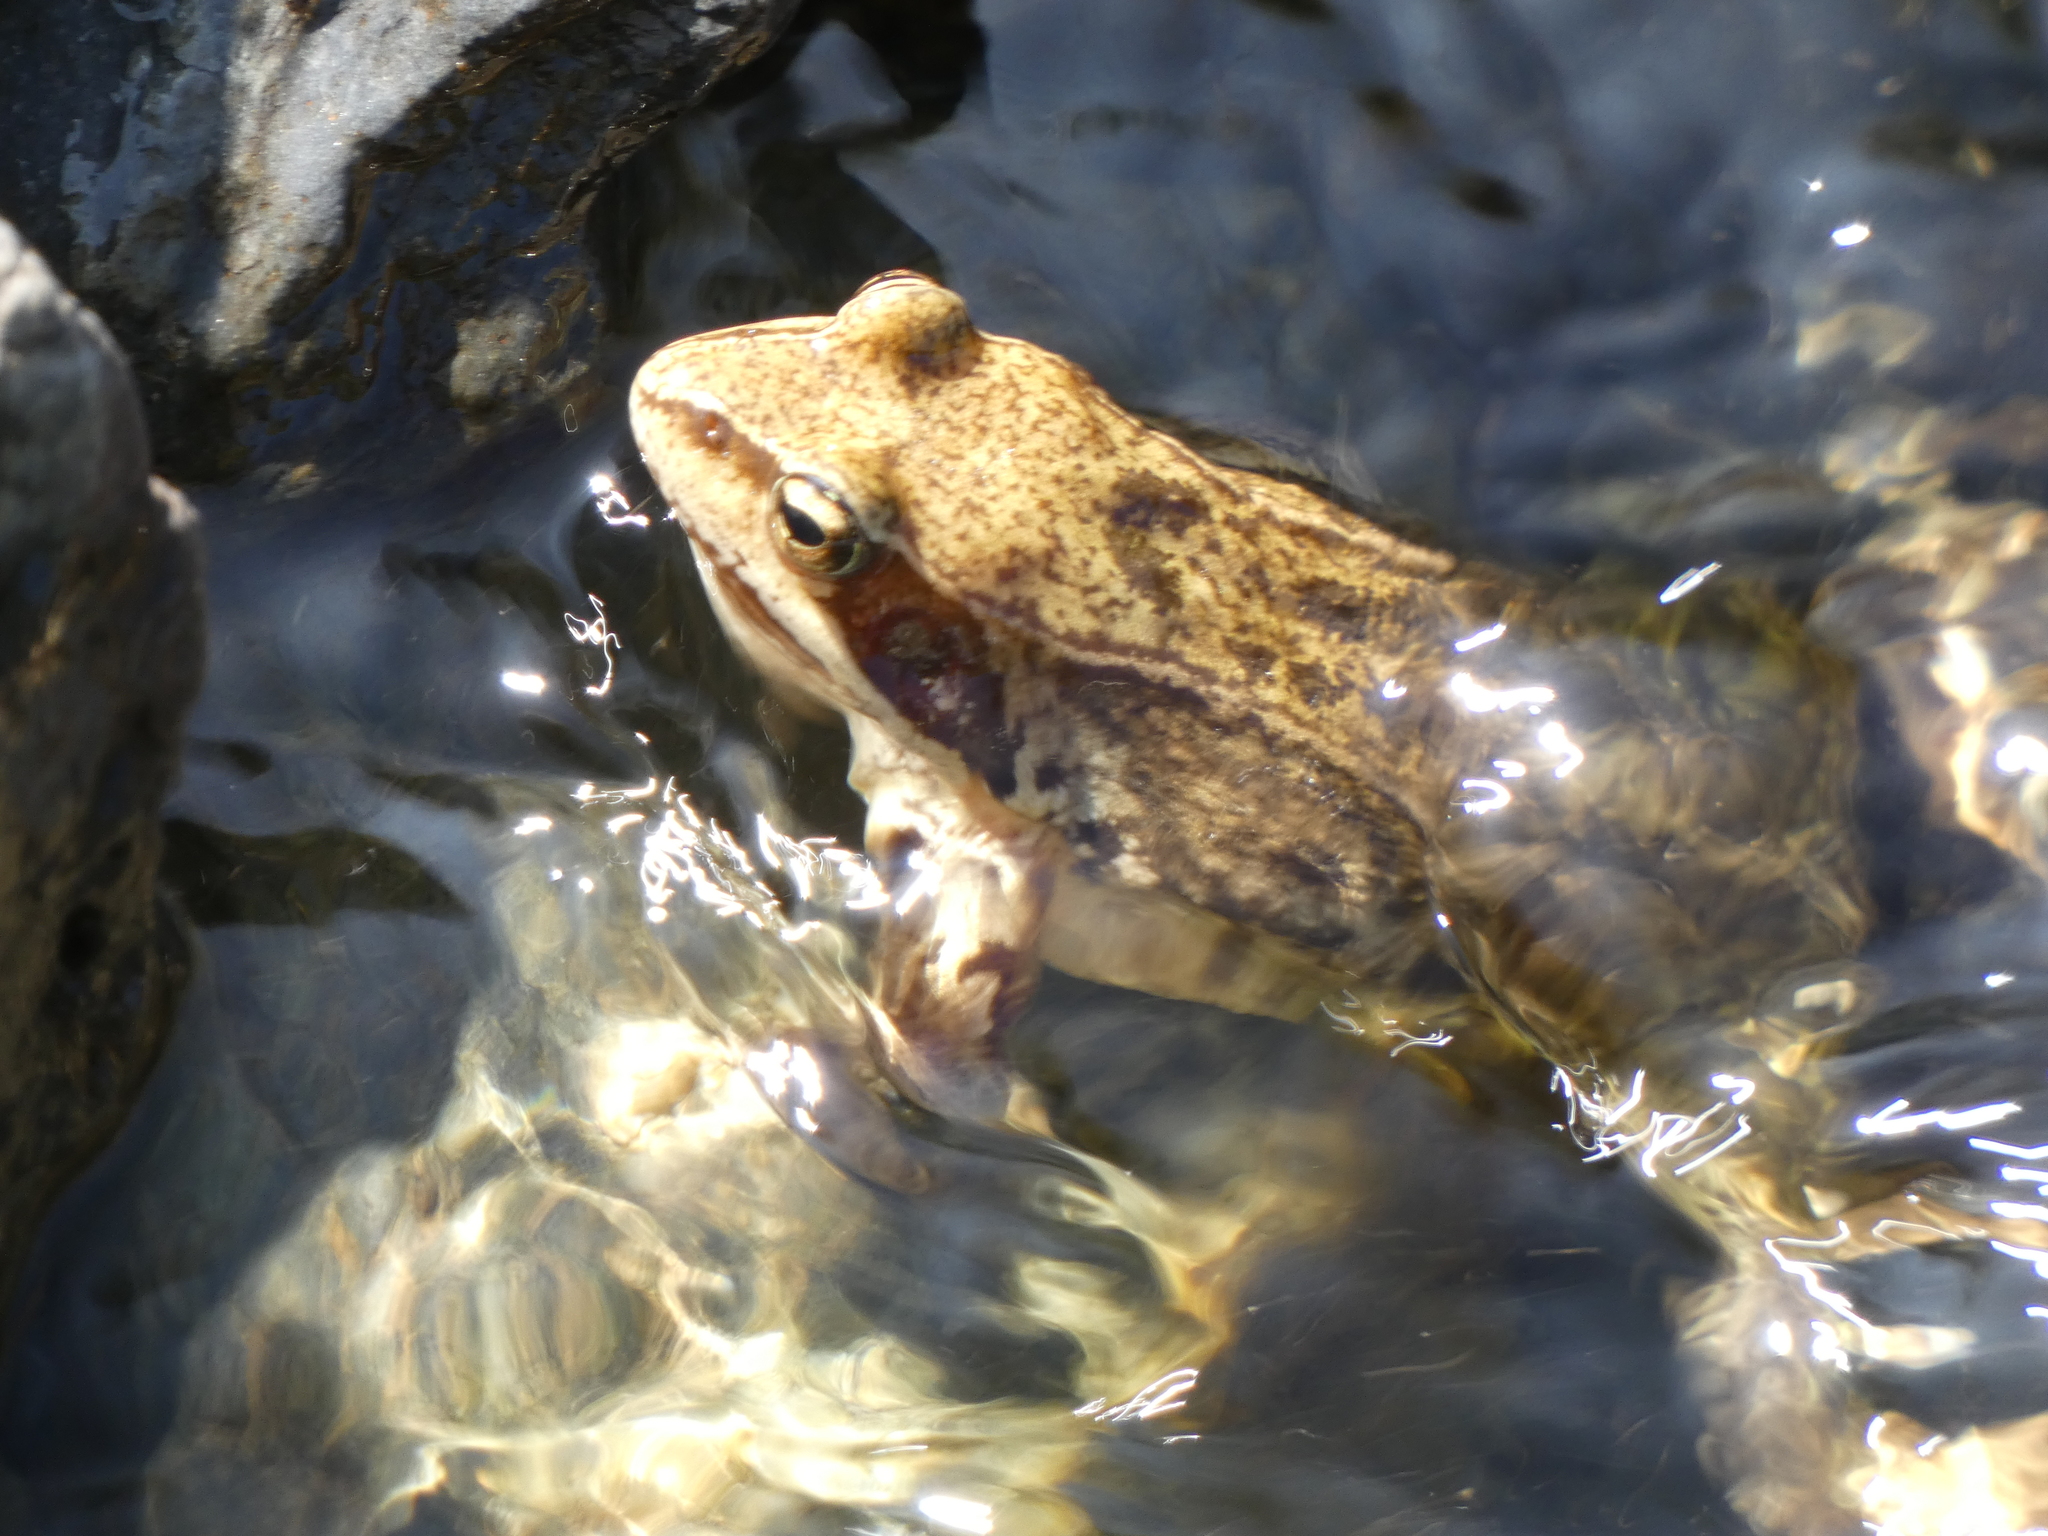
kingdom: Animalia
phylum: Chordata
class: Amphibia
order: Anura
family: Ranidae
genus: Rana
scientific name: Rana temporaria
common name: Common frog
